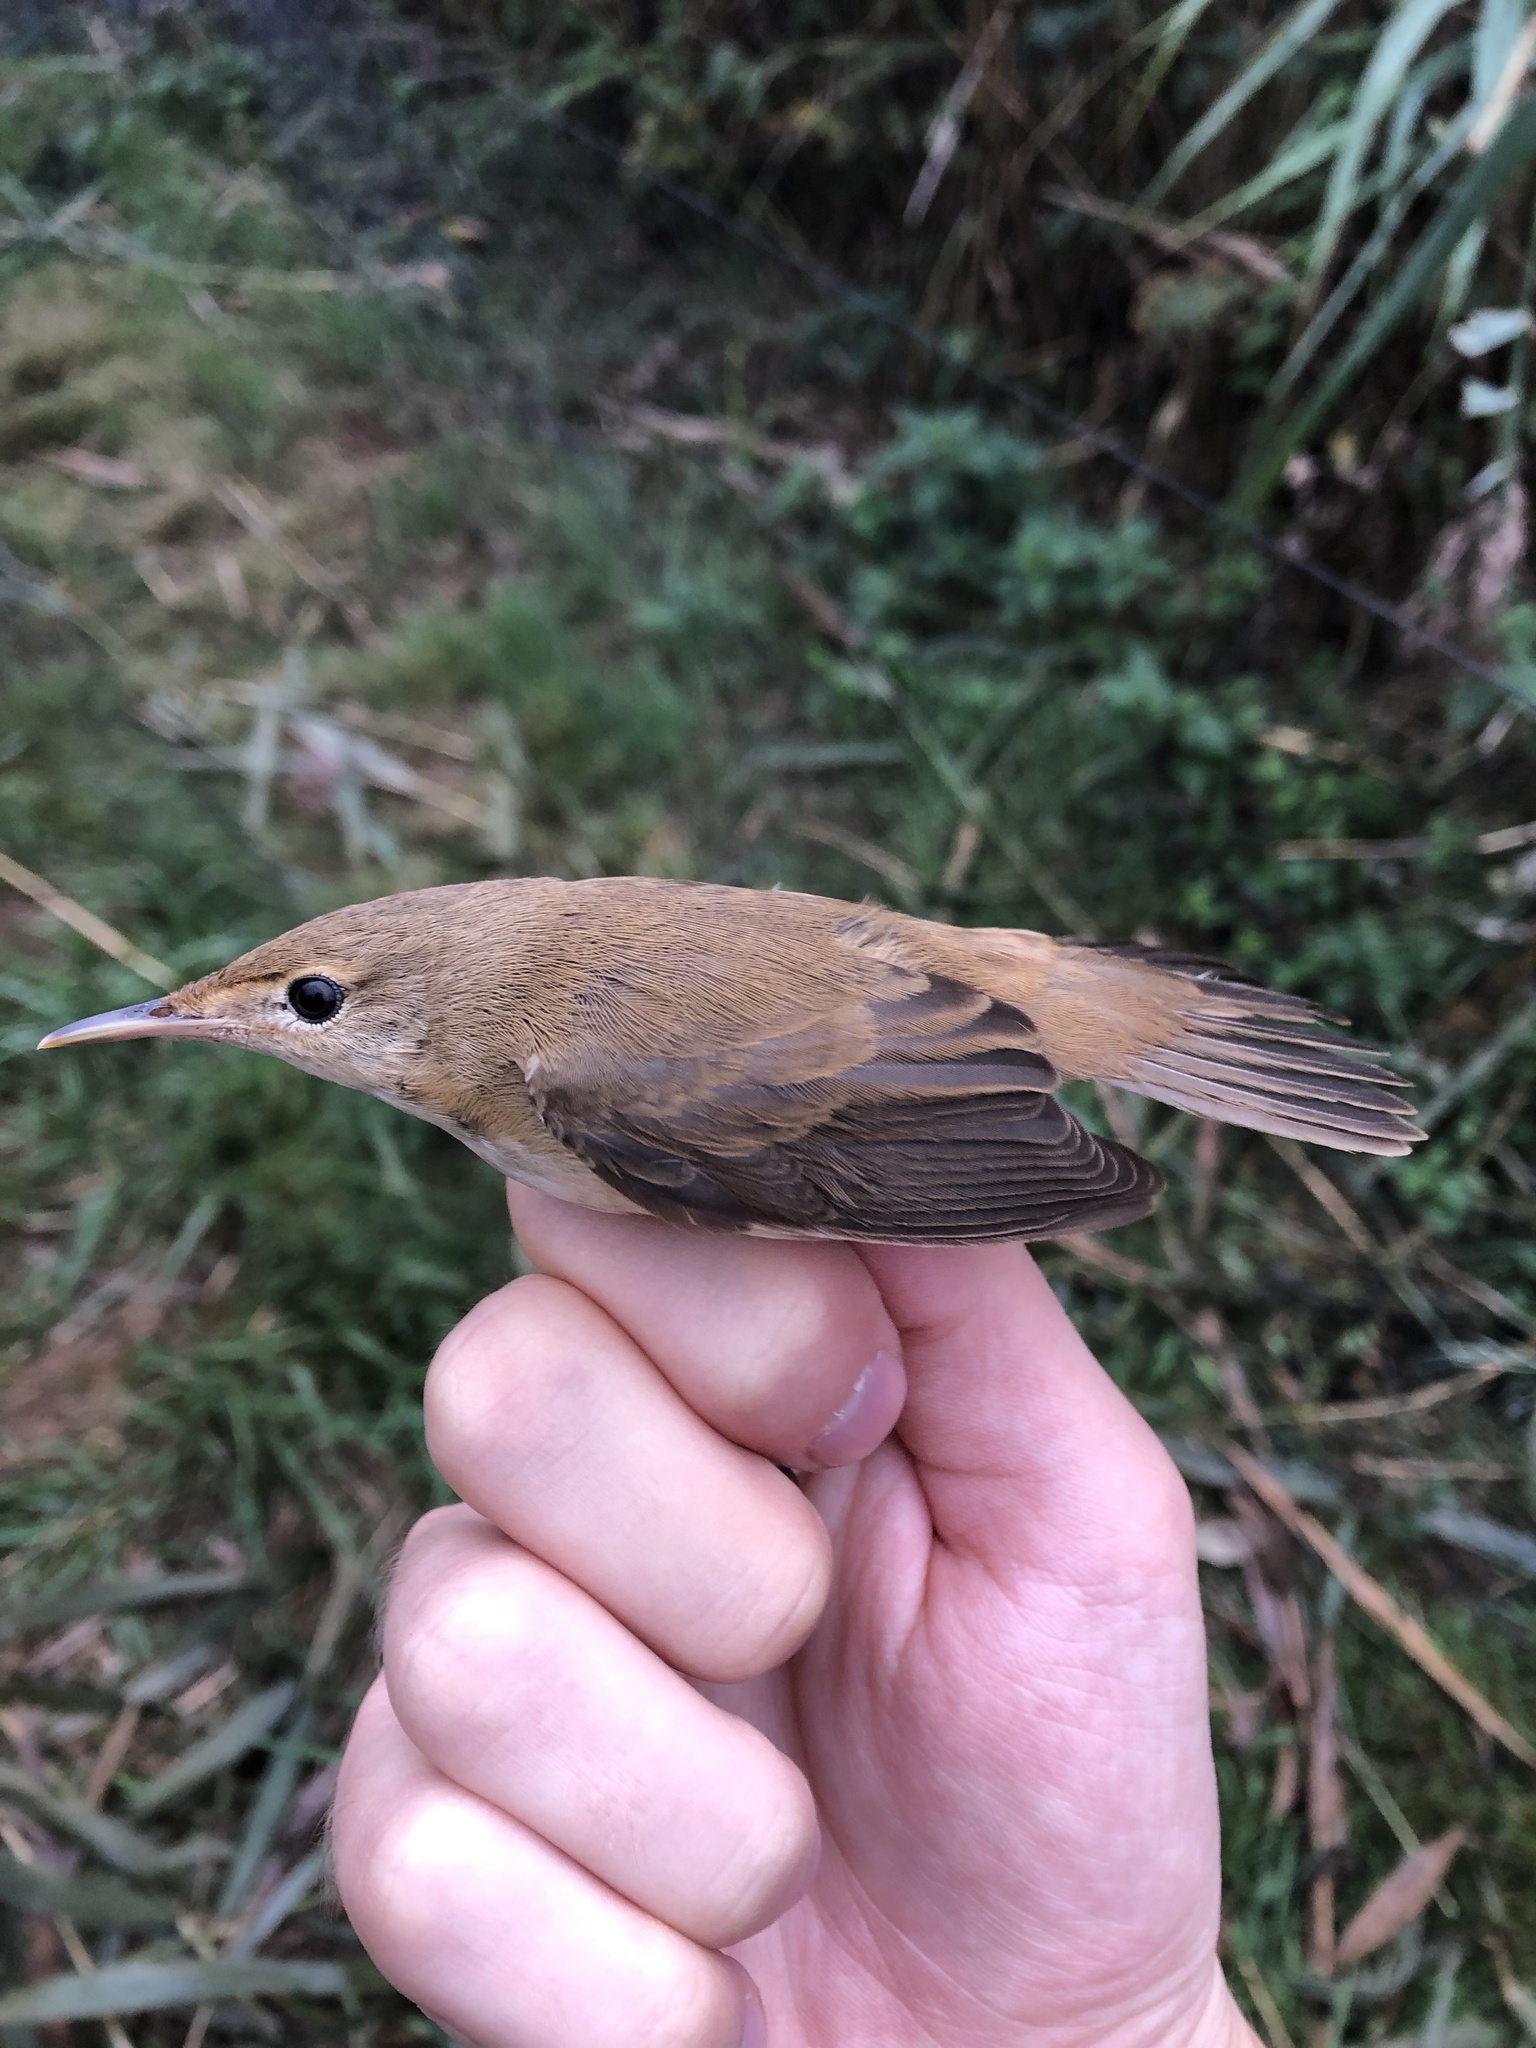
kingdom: Animalia
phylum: Chordata
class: Aves
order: Passeriformes
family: Acrocephalidae
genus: Acrocephalus
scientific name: Acrocephalus scirpaceus
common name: Eurasian reed warbler
